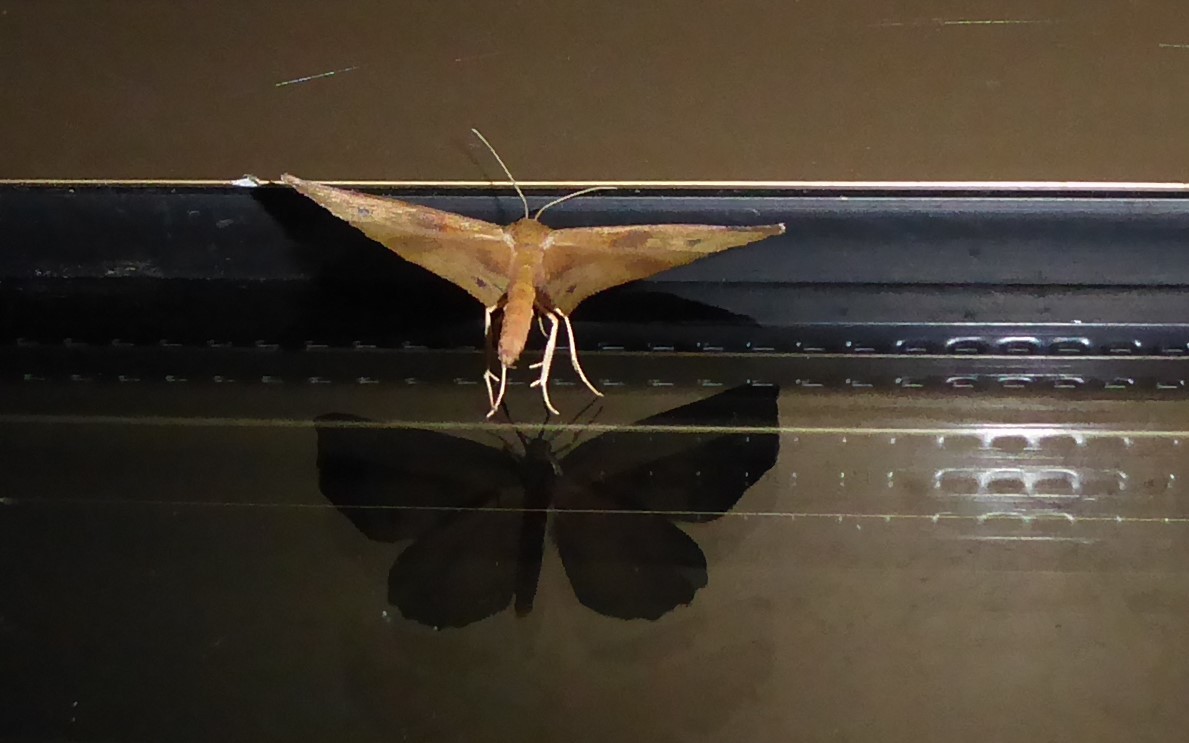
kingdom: Animalia
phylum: Arthropoda
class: Insecta
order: Lepidoptera
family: Geometridae
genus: Xyridacma
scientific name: Xyridacma ustaria
